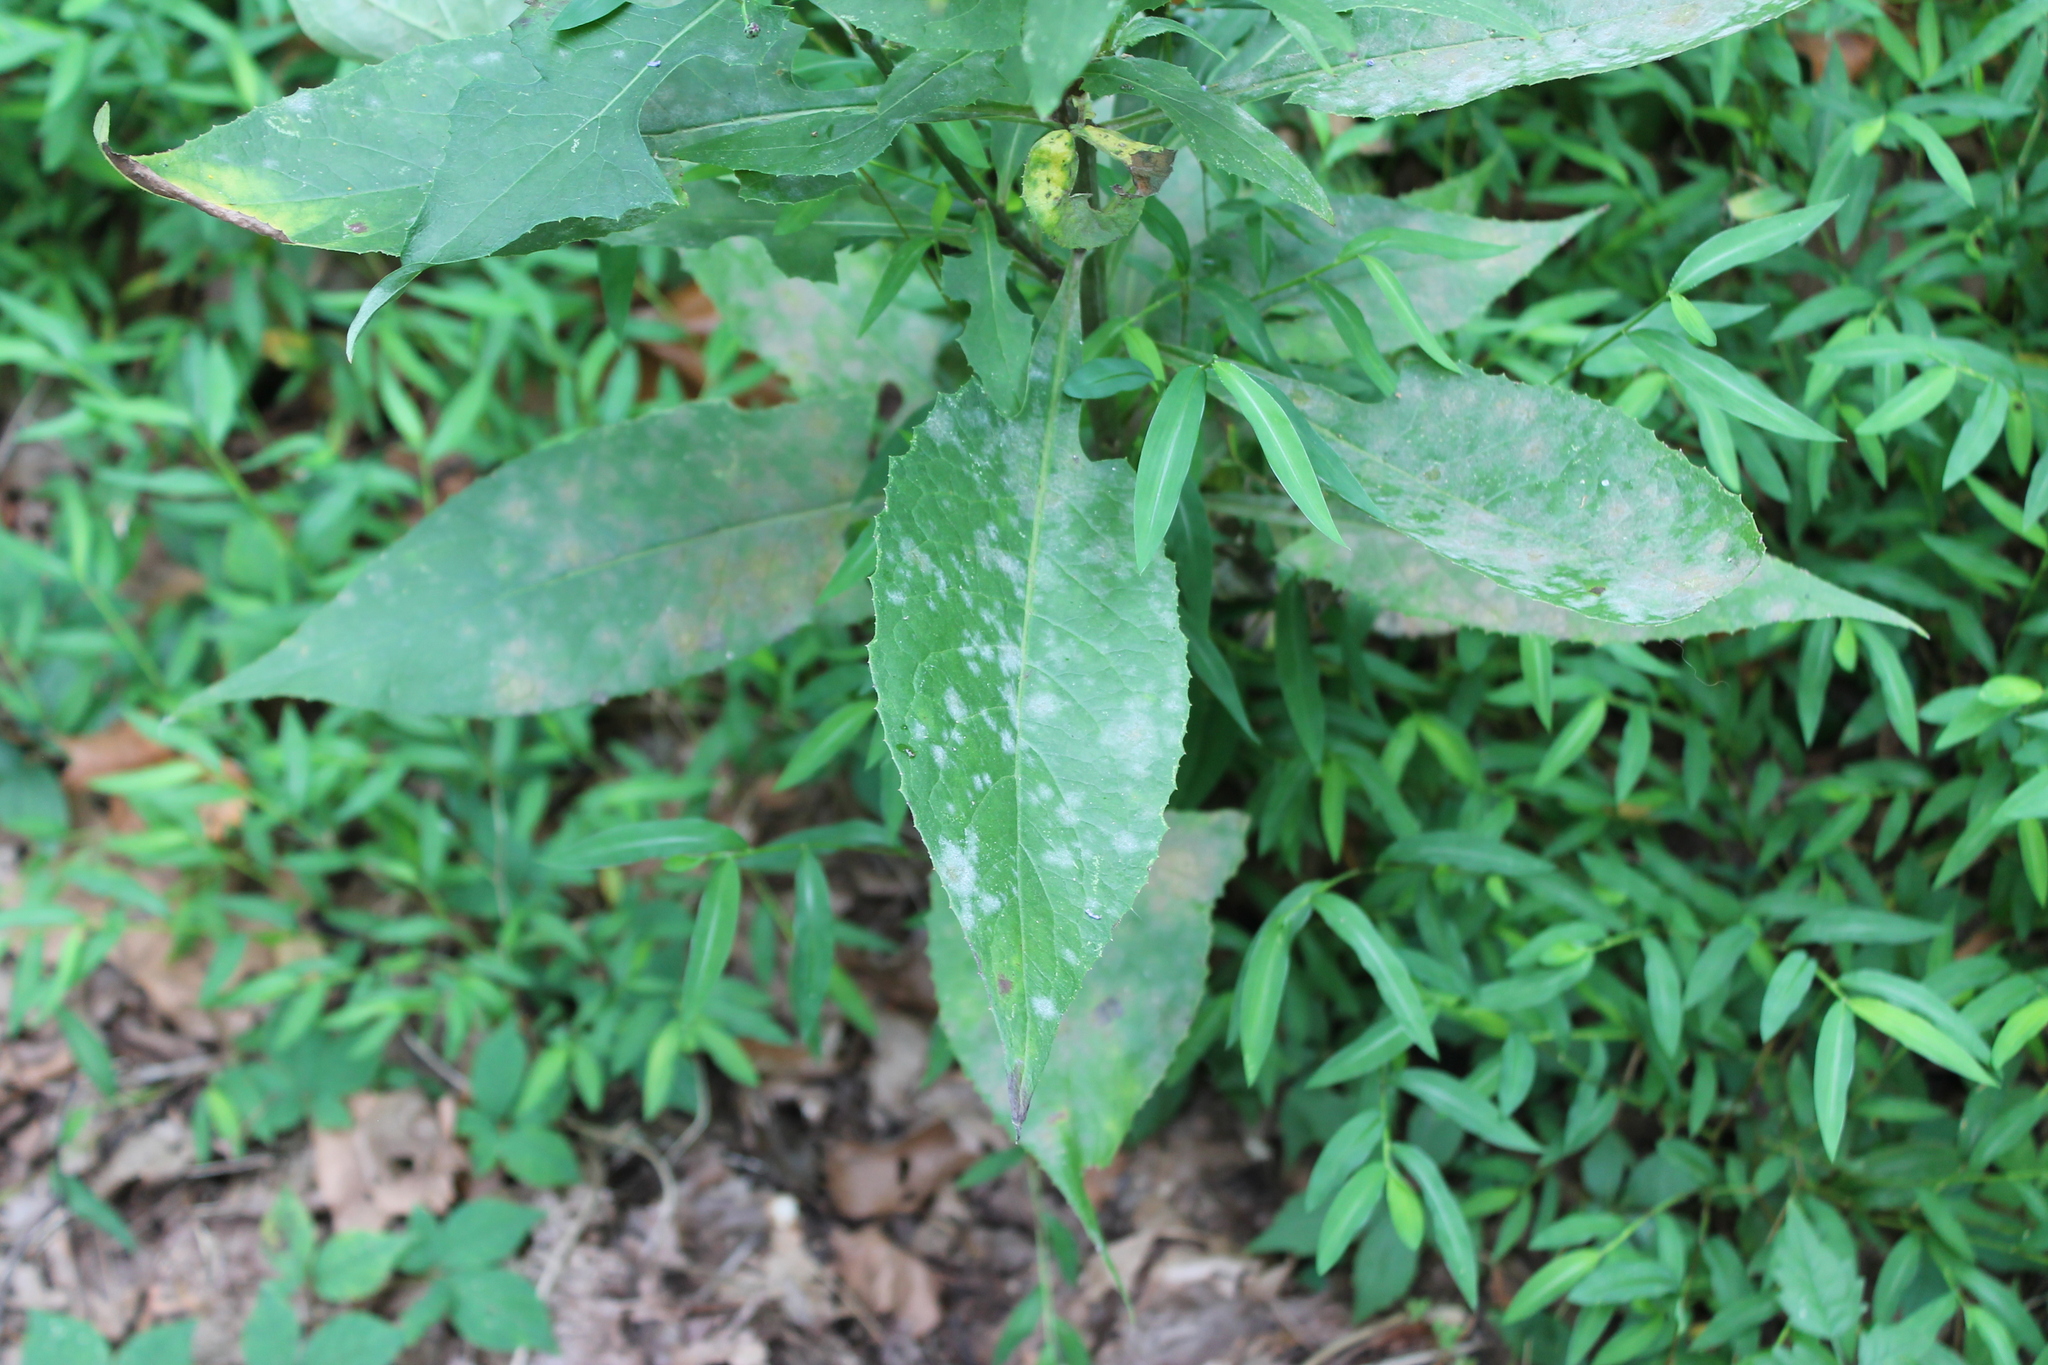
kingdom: Plantae
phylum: Tracheophyta
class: Magnoliopsida
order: Asterales
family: Asteraceae
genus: Lactuca
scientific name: Lactuca floridana
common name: Woodland lettuce
